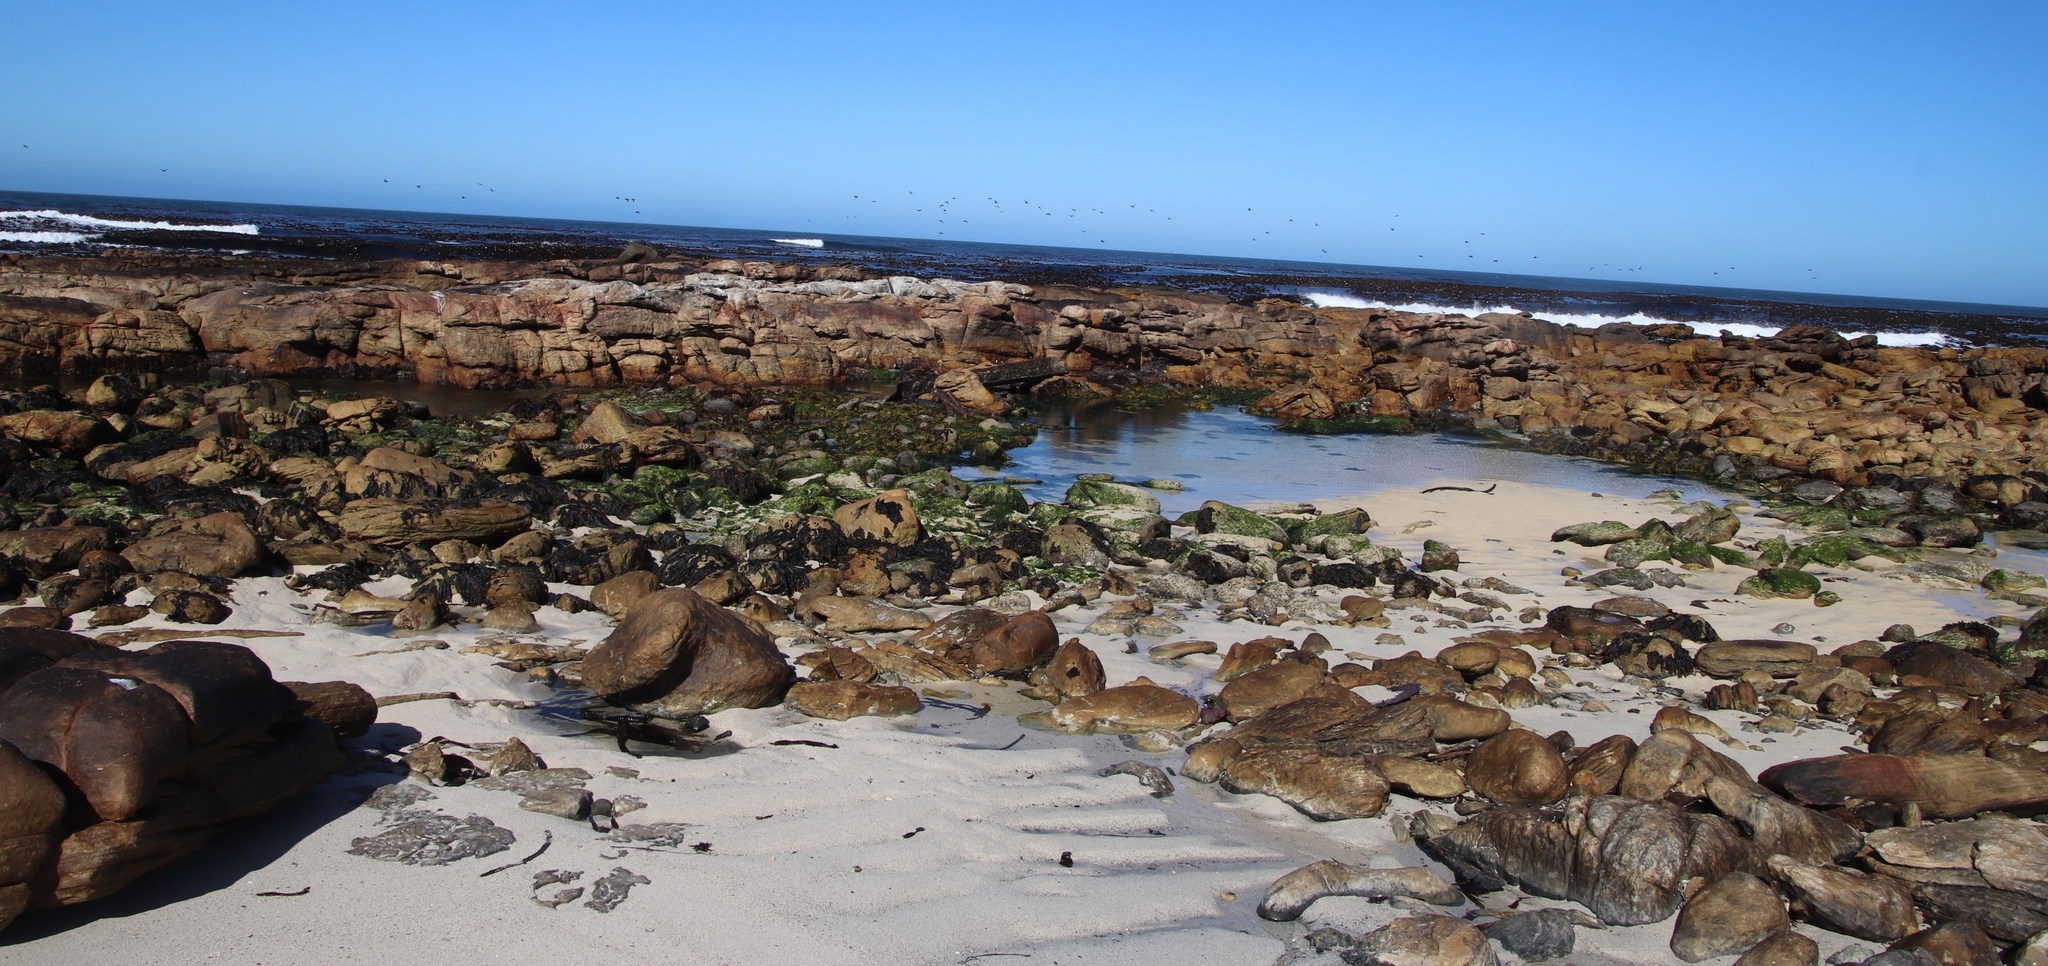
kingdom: Animalia
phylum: Chordata
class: Aves
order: Suliformes
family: Phalacrocoracidae
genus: Phalacrocorax
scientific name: Phalacrocorax capensis
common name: Cape cormorant
